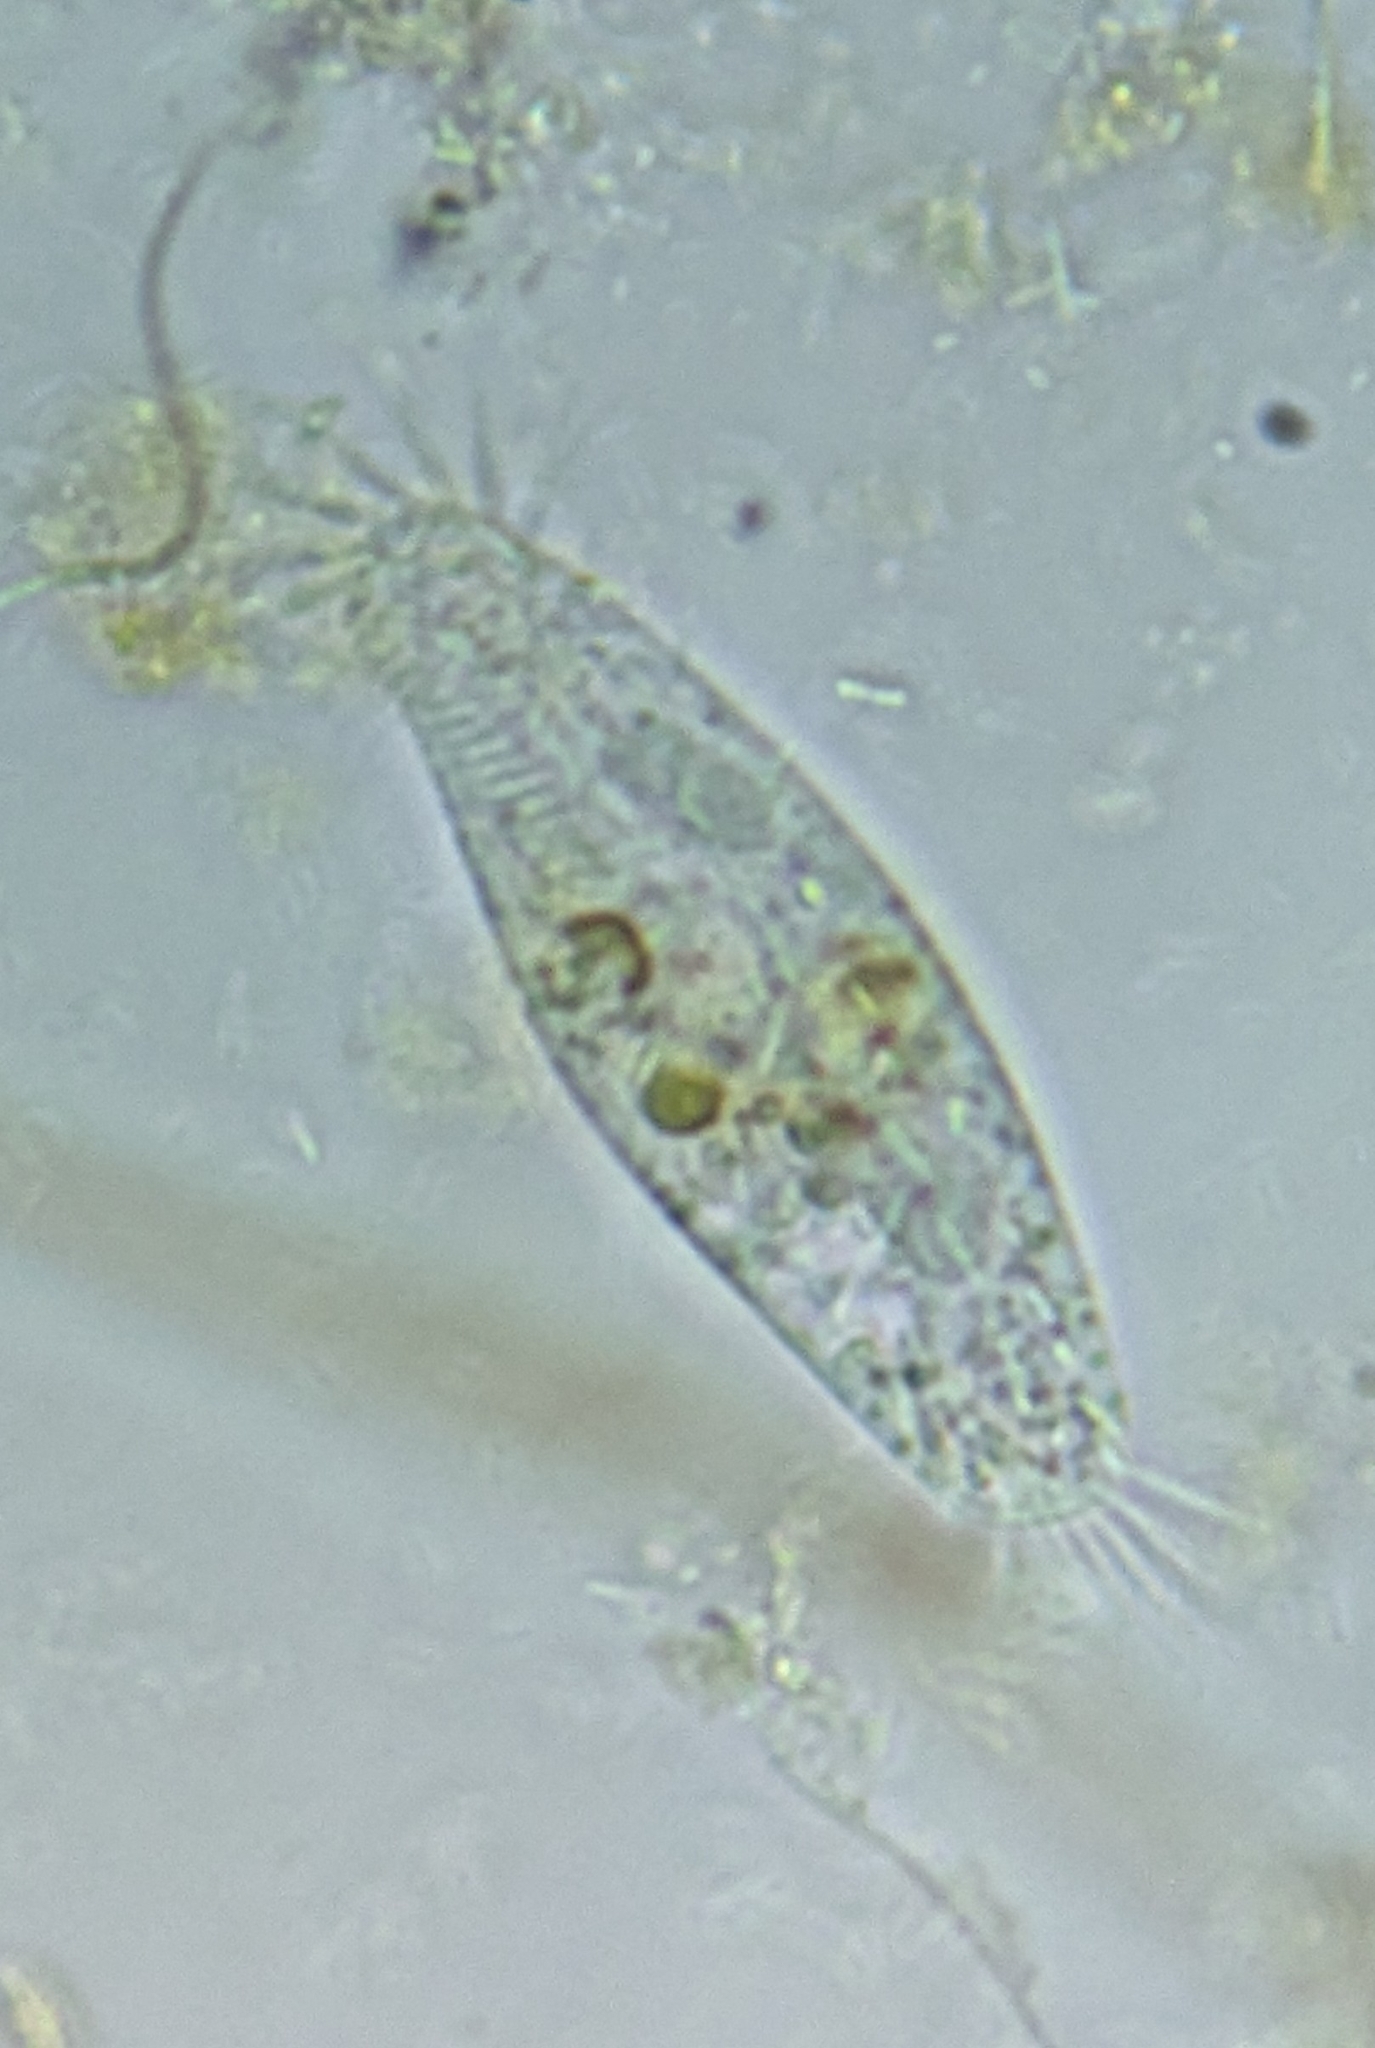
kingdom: Chromista
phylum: Ciliophora
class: Hypotrichea
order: Urostylida
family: Holostichidae
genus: Holosticha
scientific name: Holosticha pullaster
